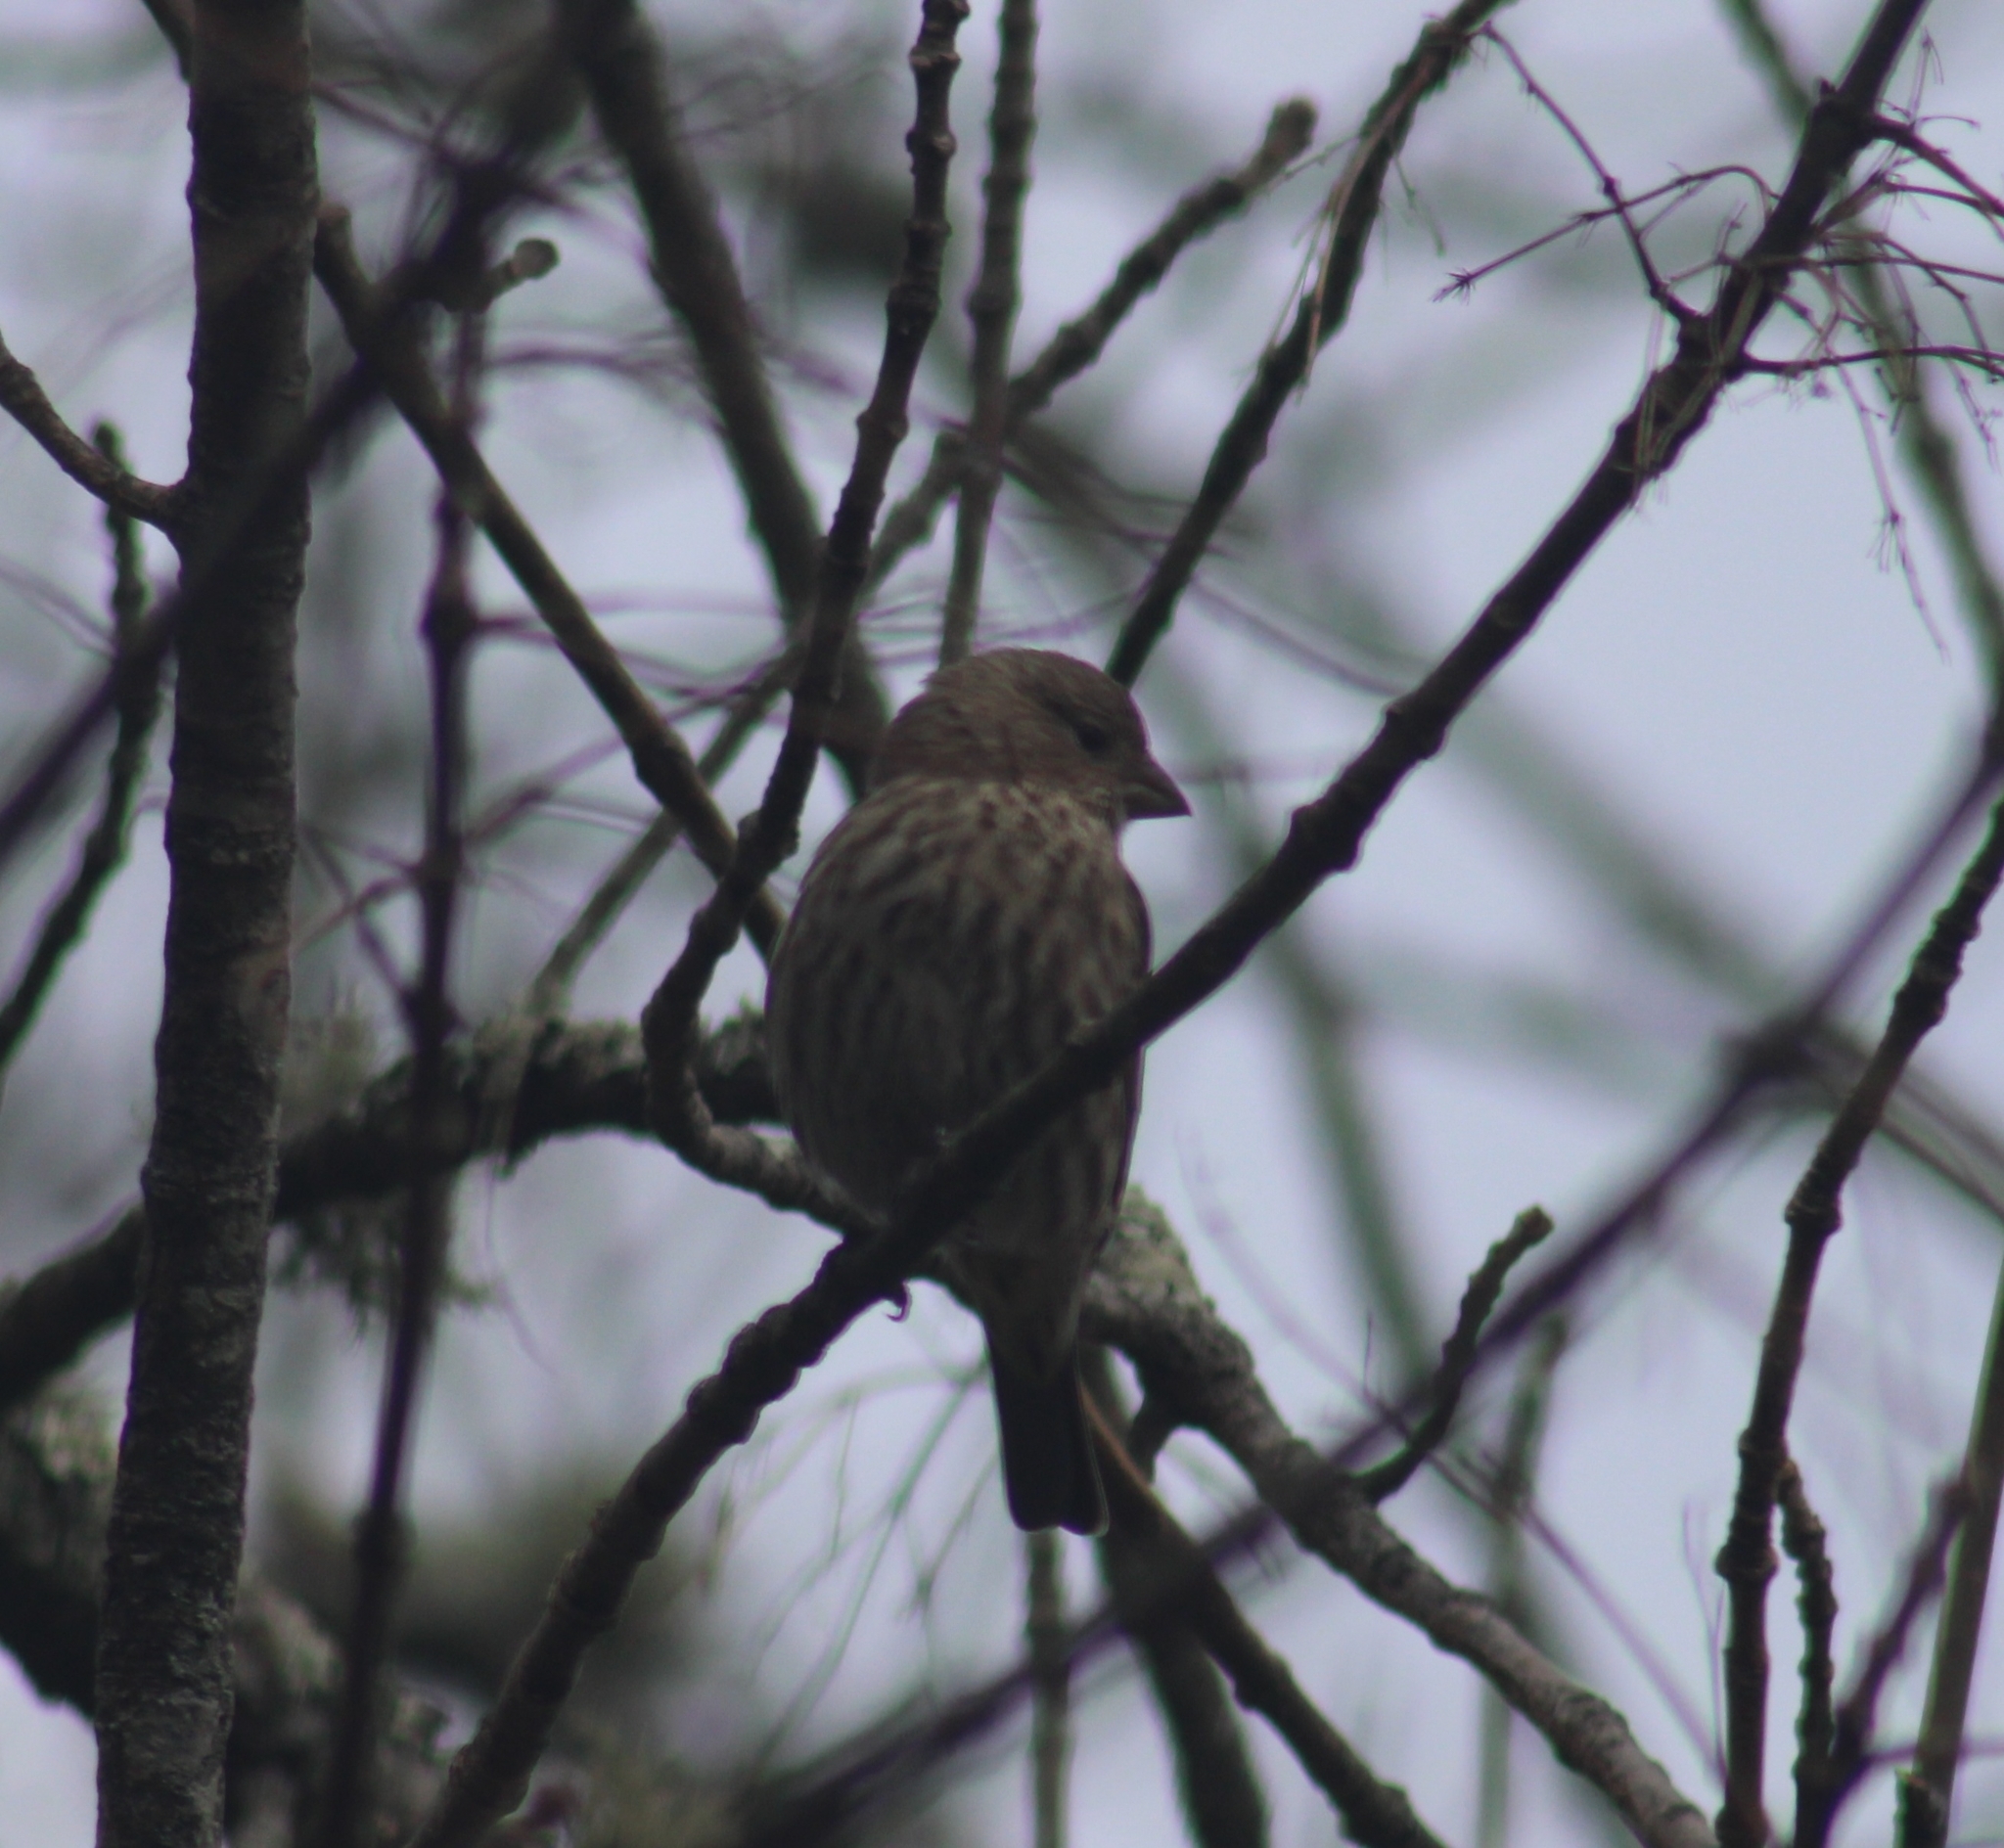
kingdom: Animalia
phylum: Chordata
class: Aves
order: Passeriformes
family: Fringillidae
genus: Haemorhous
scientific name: Haemorhous mexicanus
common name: House finch
